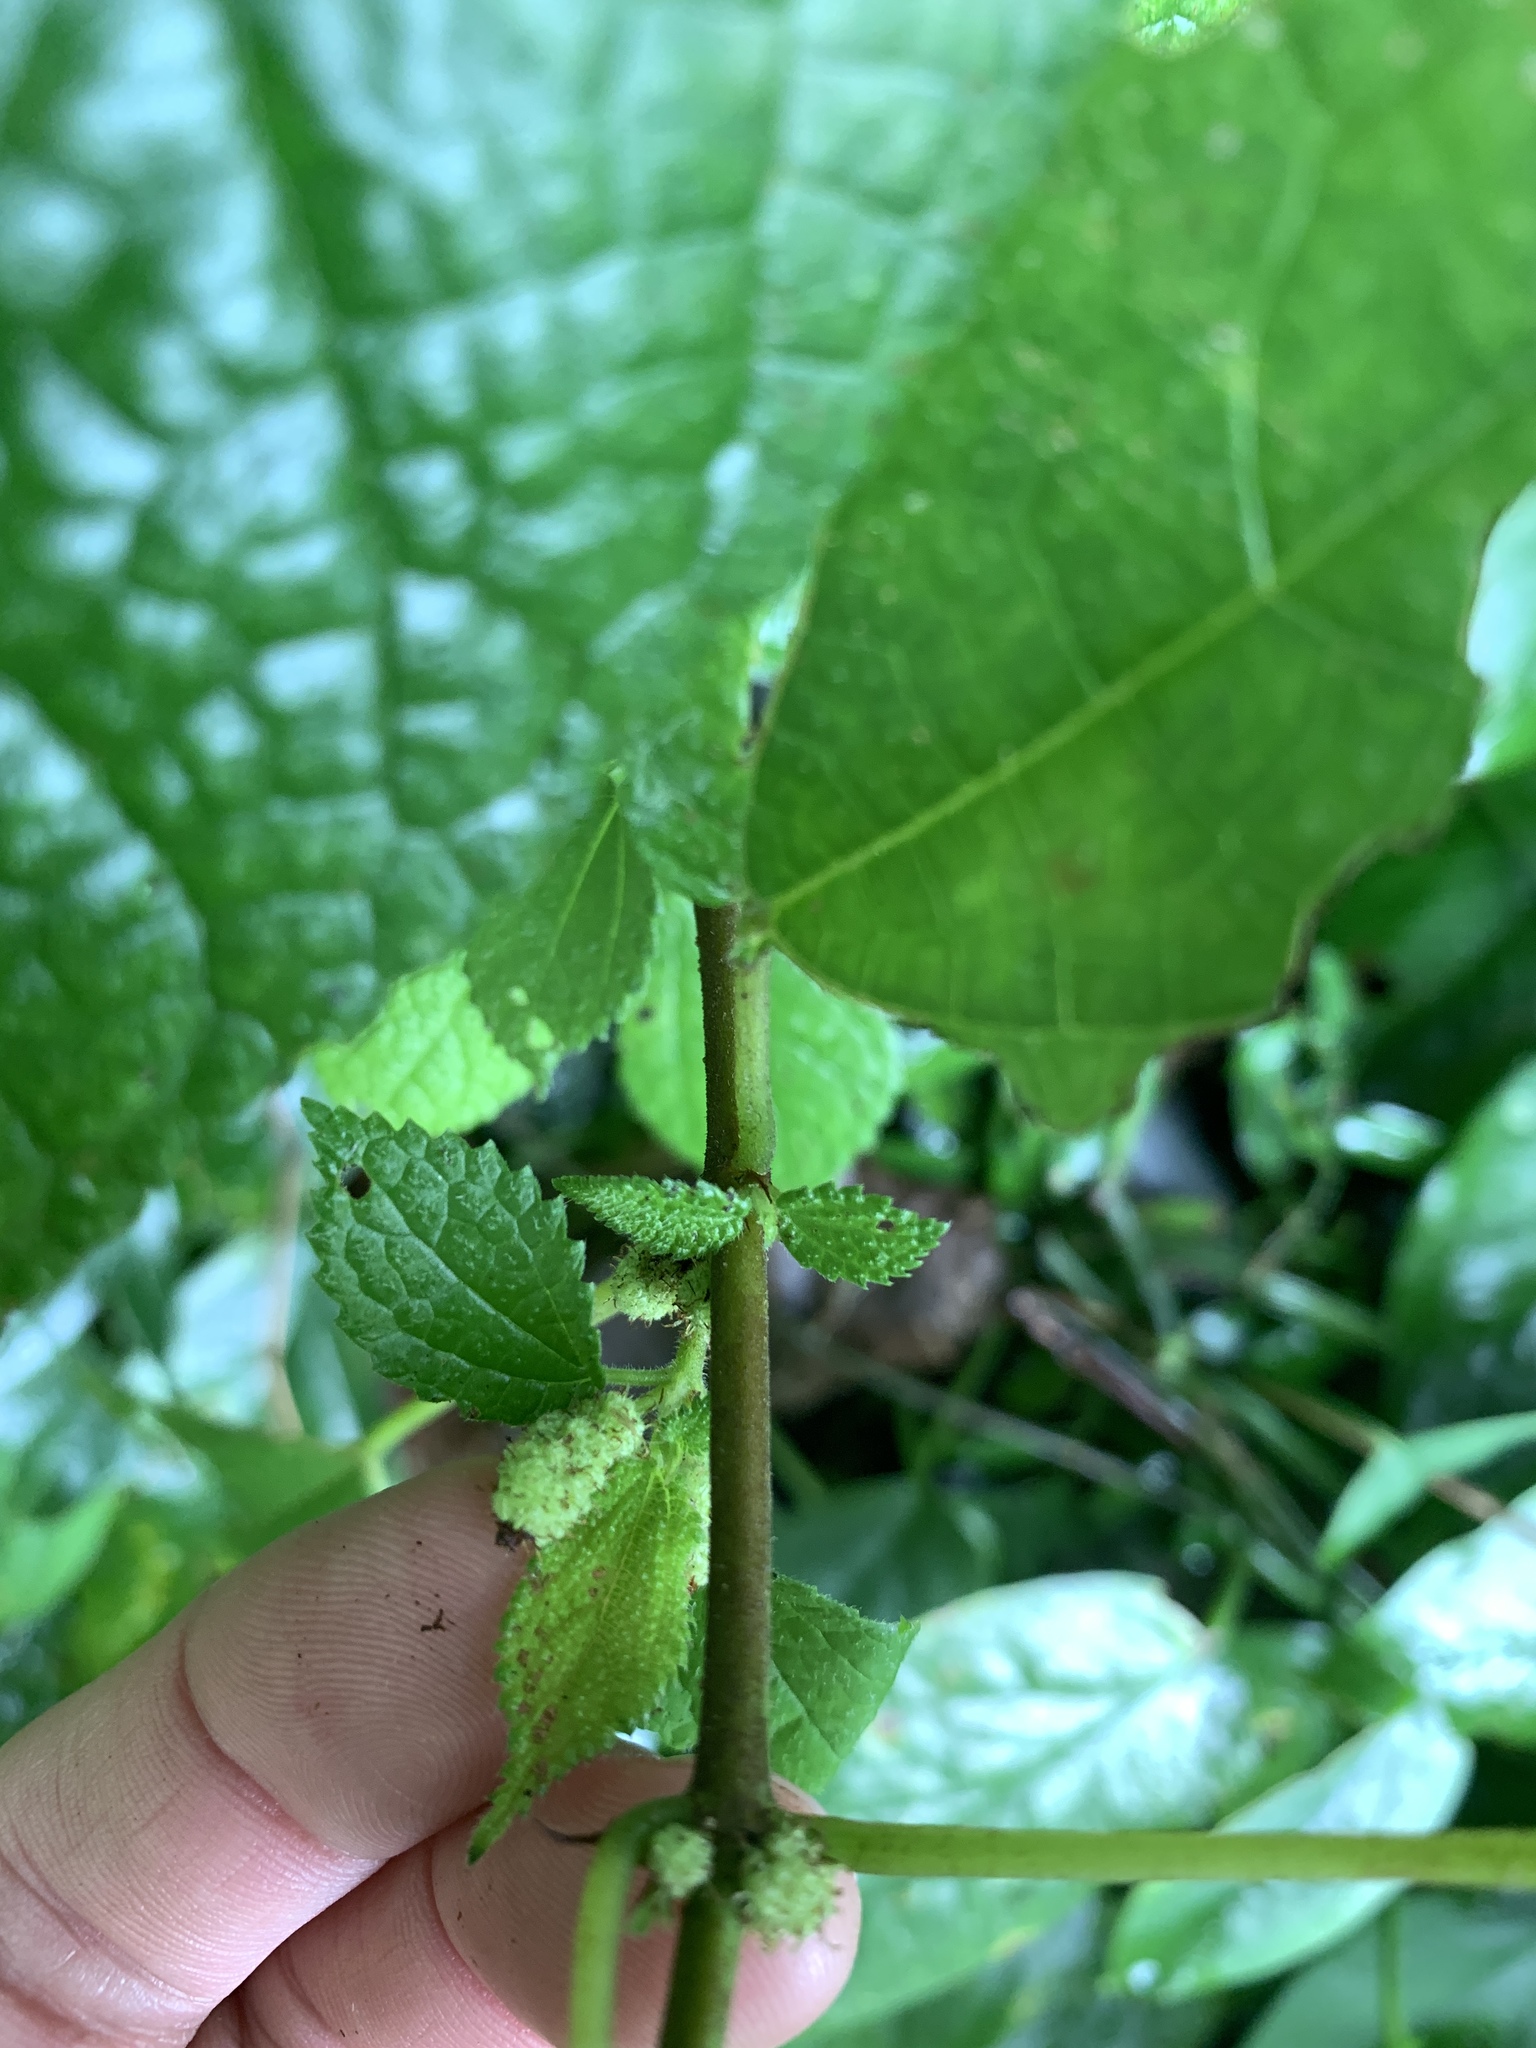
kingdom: Plantae
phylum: Tracheophyta
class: Magnoliopsida
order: Rosales
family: Urticaceae
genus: Boehmeria
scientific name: Boehmeria pilosiuscula
